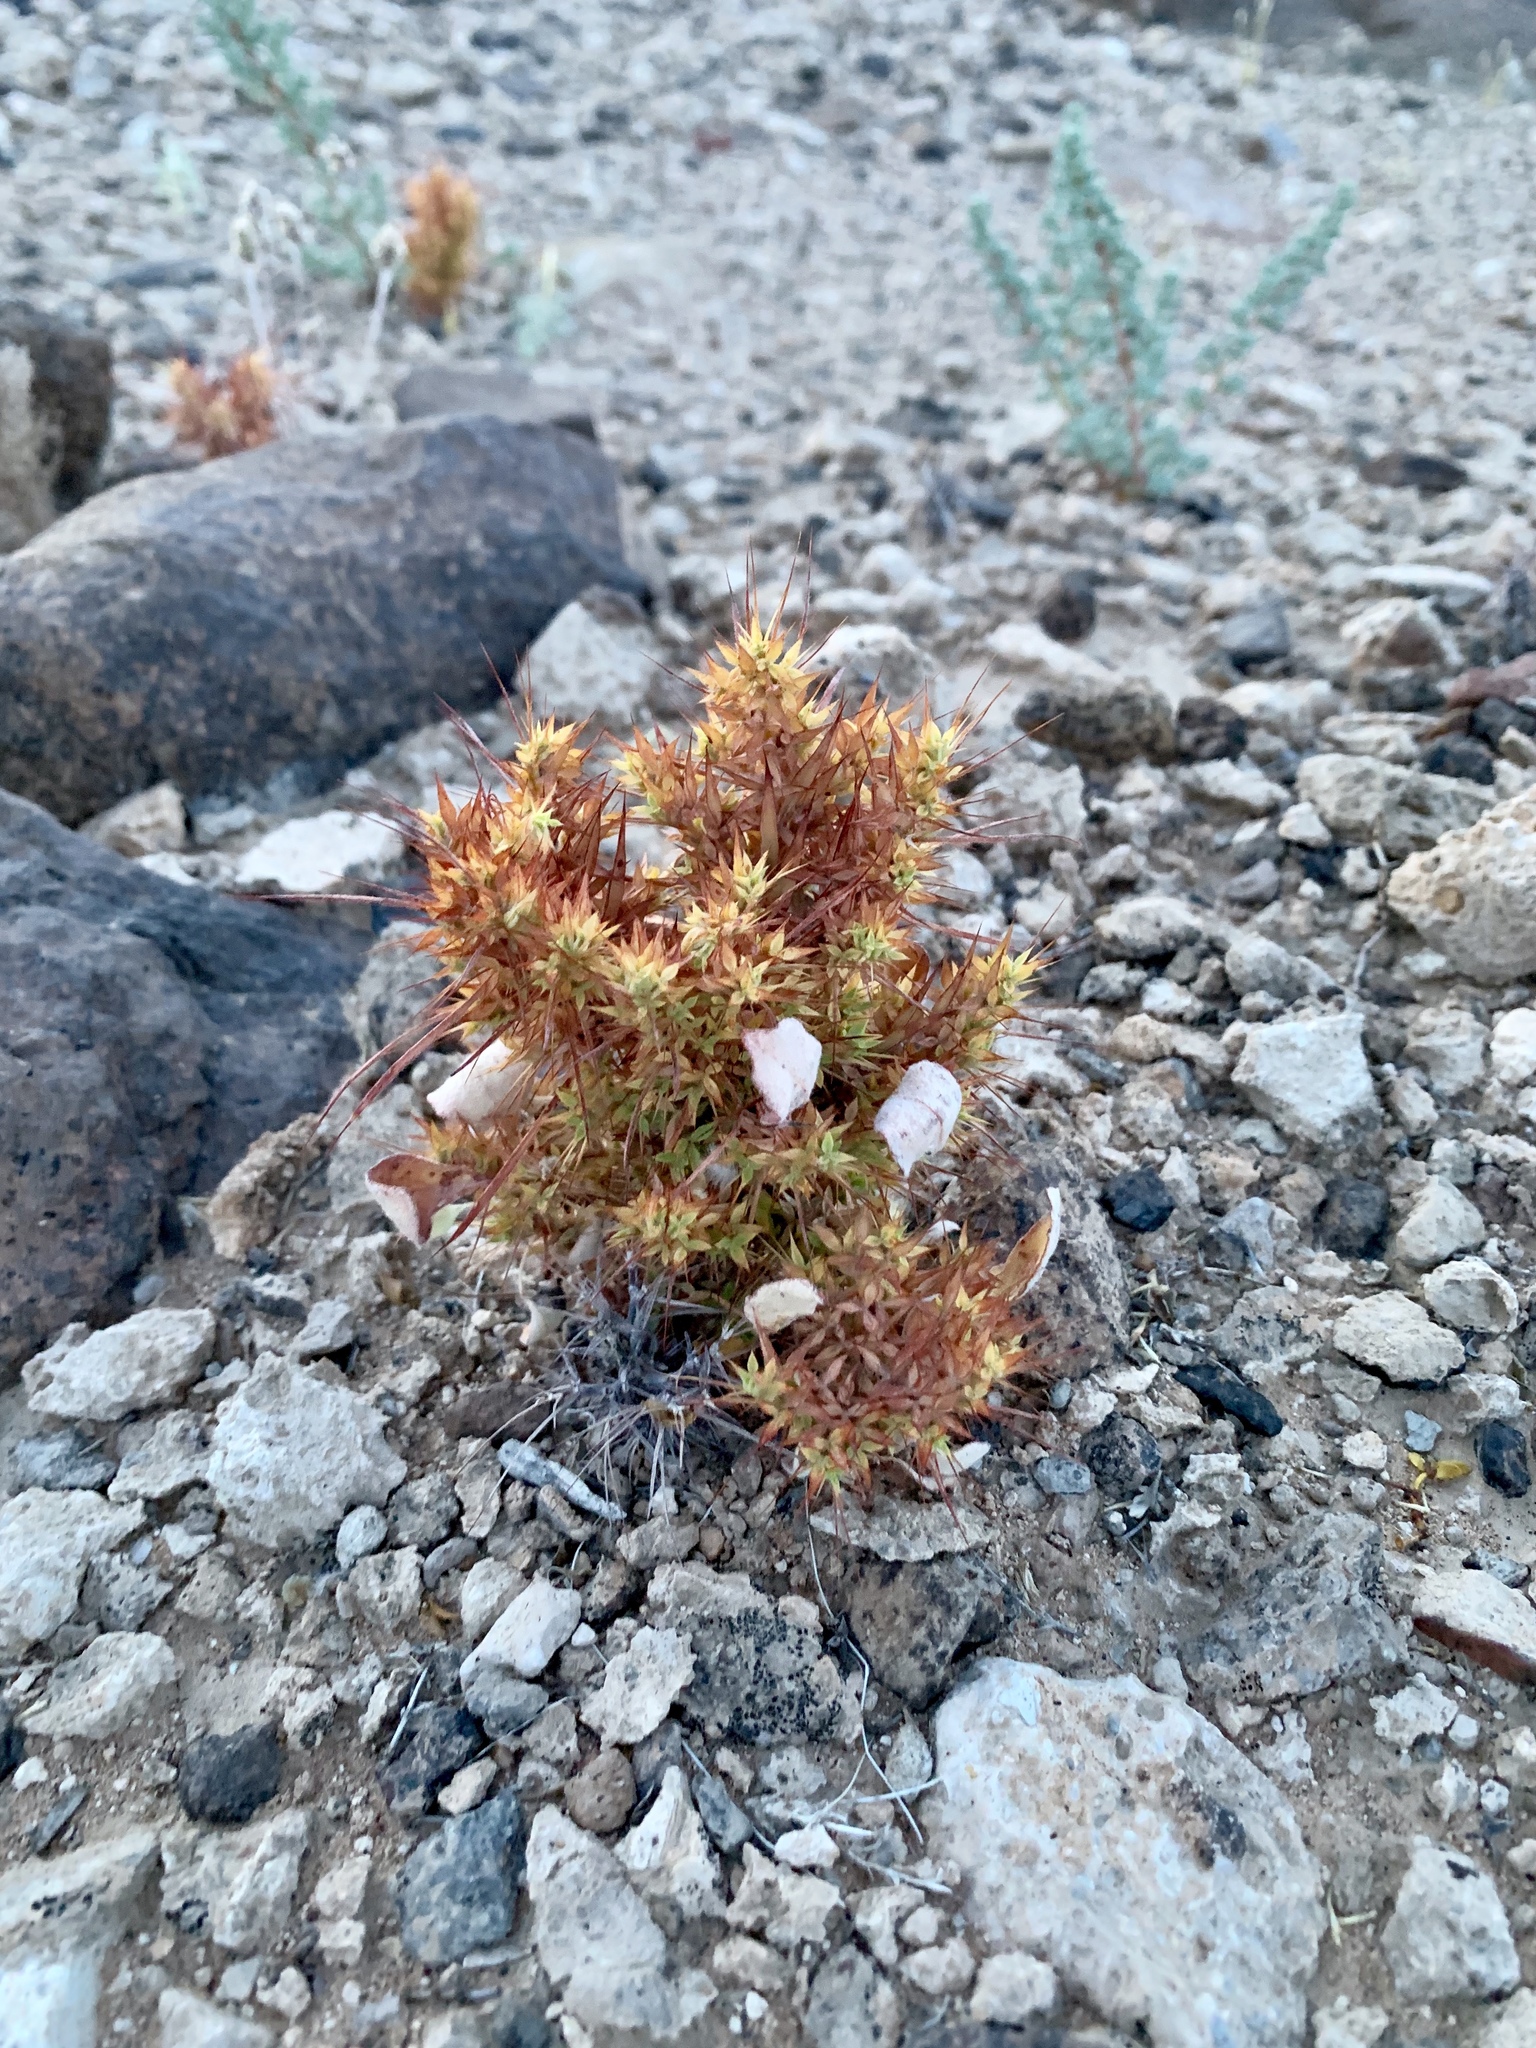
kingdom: Plantae
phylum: Tracheophyta
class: Magnoliopsida
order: Caryophyllales
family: Polygonaceae
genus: Chorizanthe
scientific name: Chorizanthe rigida
